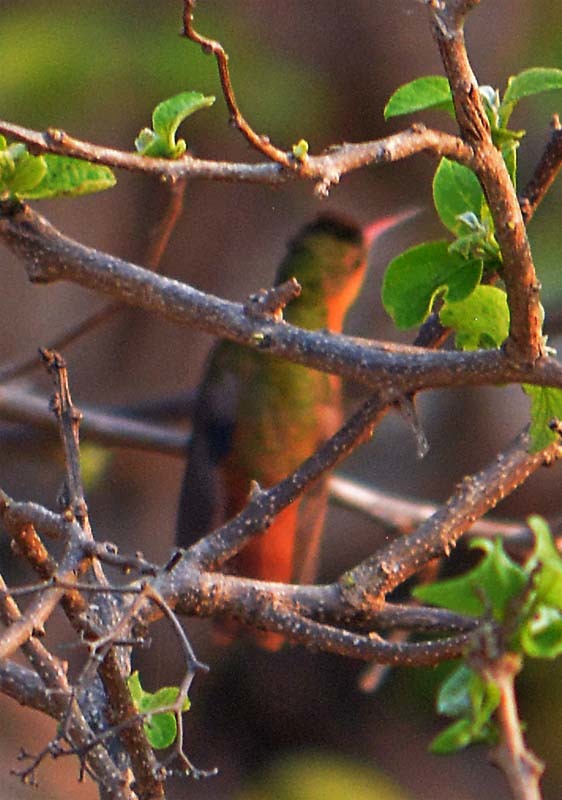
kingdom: Animalia
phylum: Chordata
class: Aves
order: Apodiformes
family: Trochilidae
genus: Amazilia
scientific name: Amazilia rutila
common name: Cinnamon hummingbird
